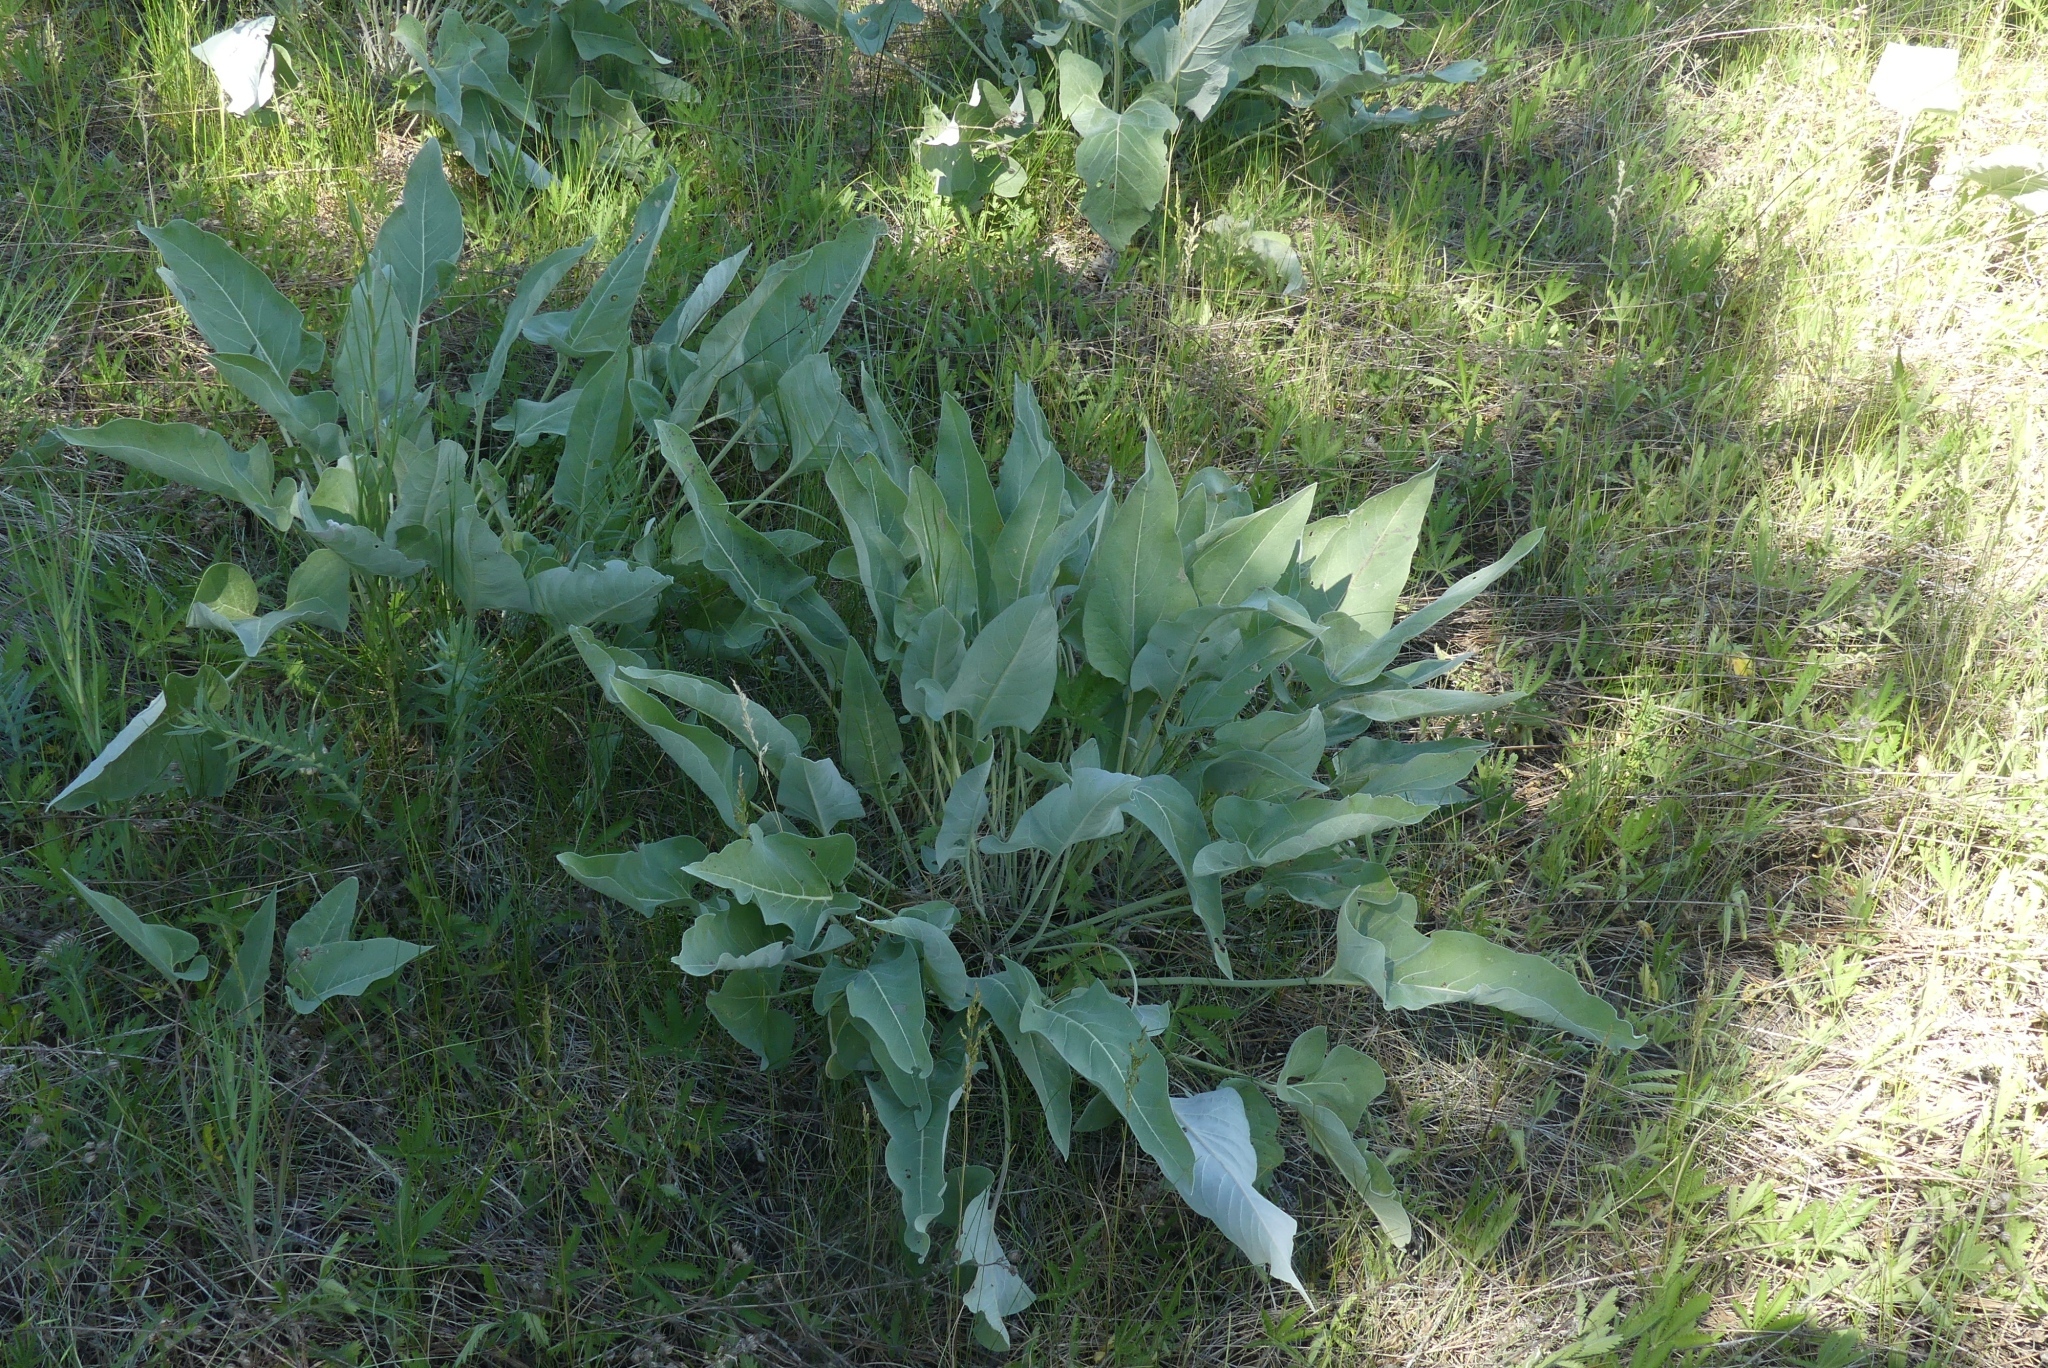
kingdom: Plantae
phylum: Tracheophyta
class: Magnoliopsida
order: Asterales
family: Asteraceae
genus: Wyethia
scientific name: Wyethia sagittata
